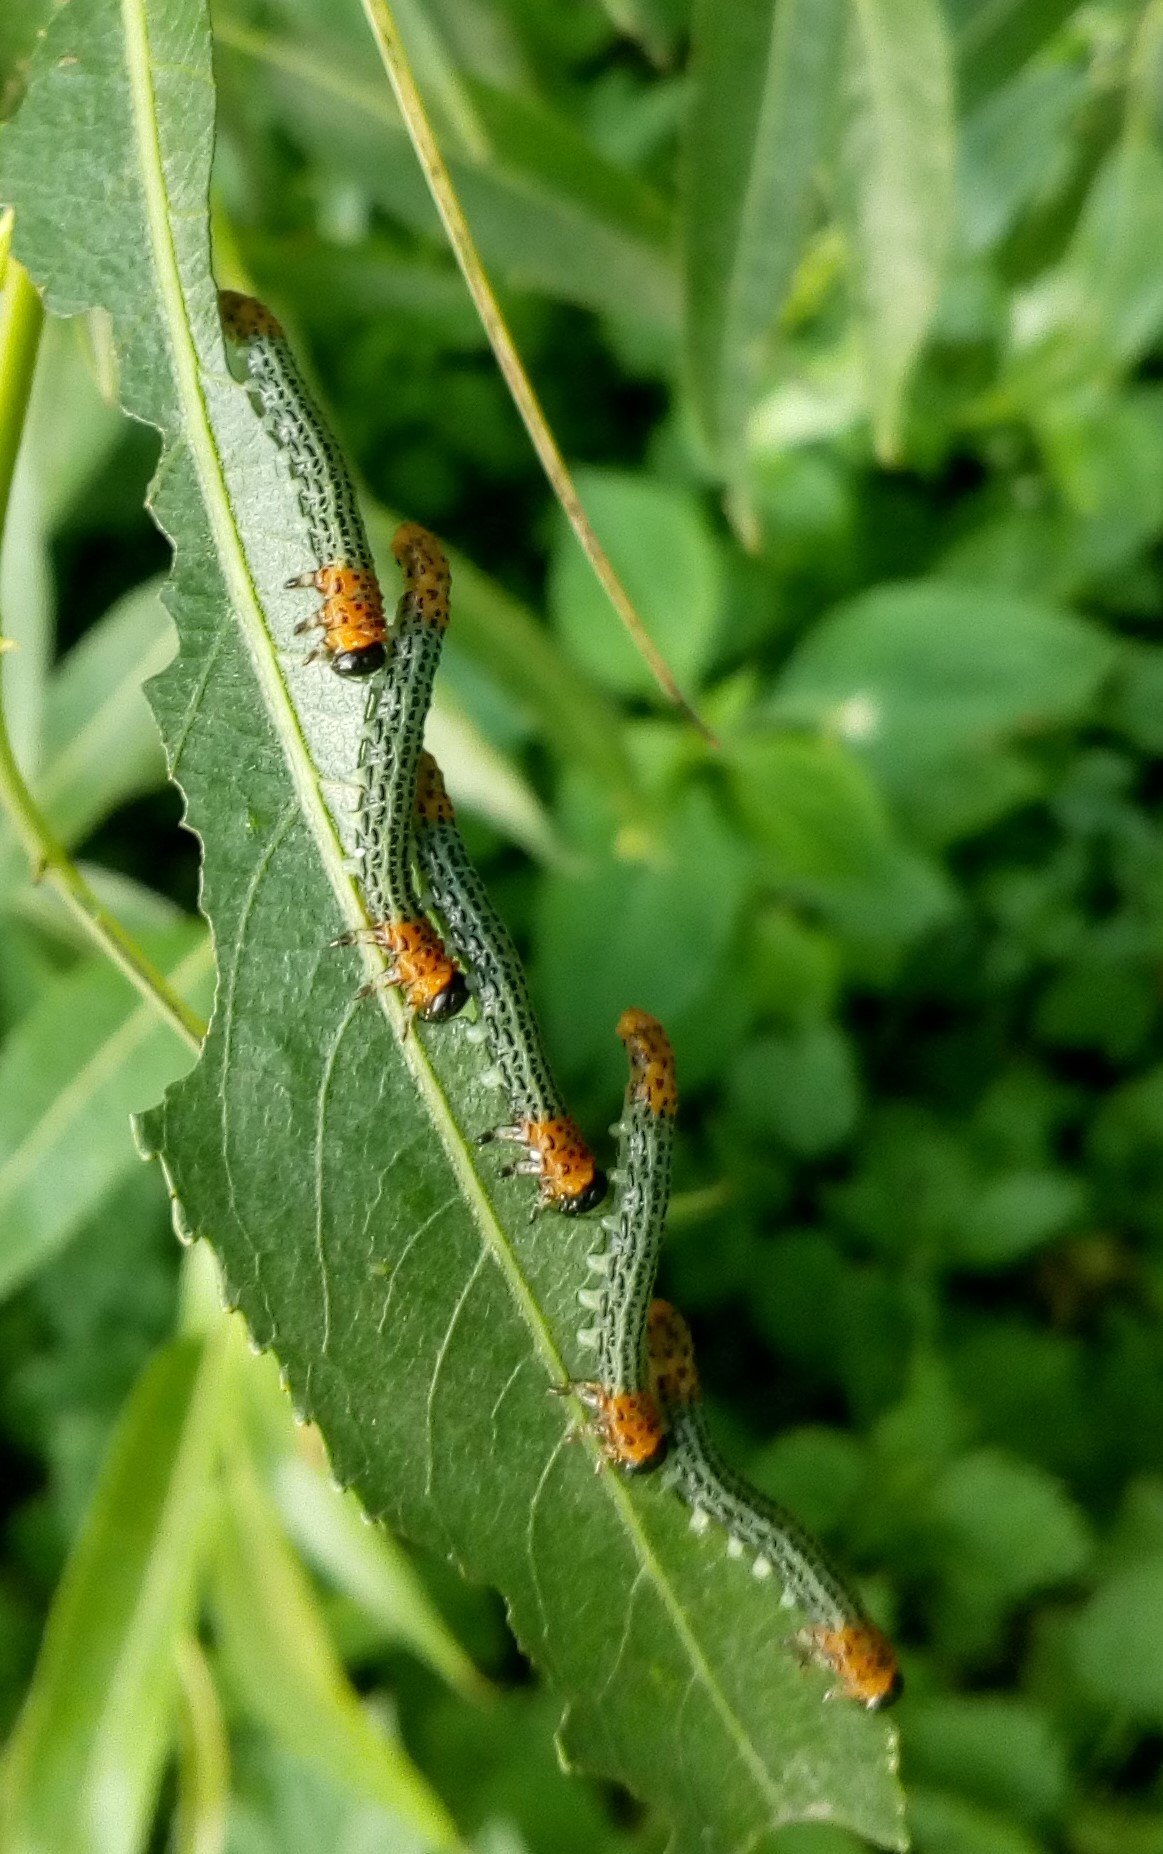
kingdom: Animalia
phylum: Arthropoda
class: Insecta
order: Hymenoptera
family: Tenthredinidae
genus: Nematus
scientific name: Nematus salicis
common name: Willow sawfly
